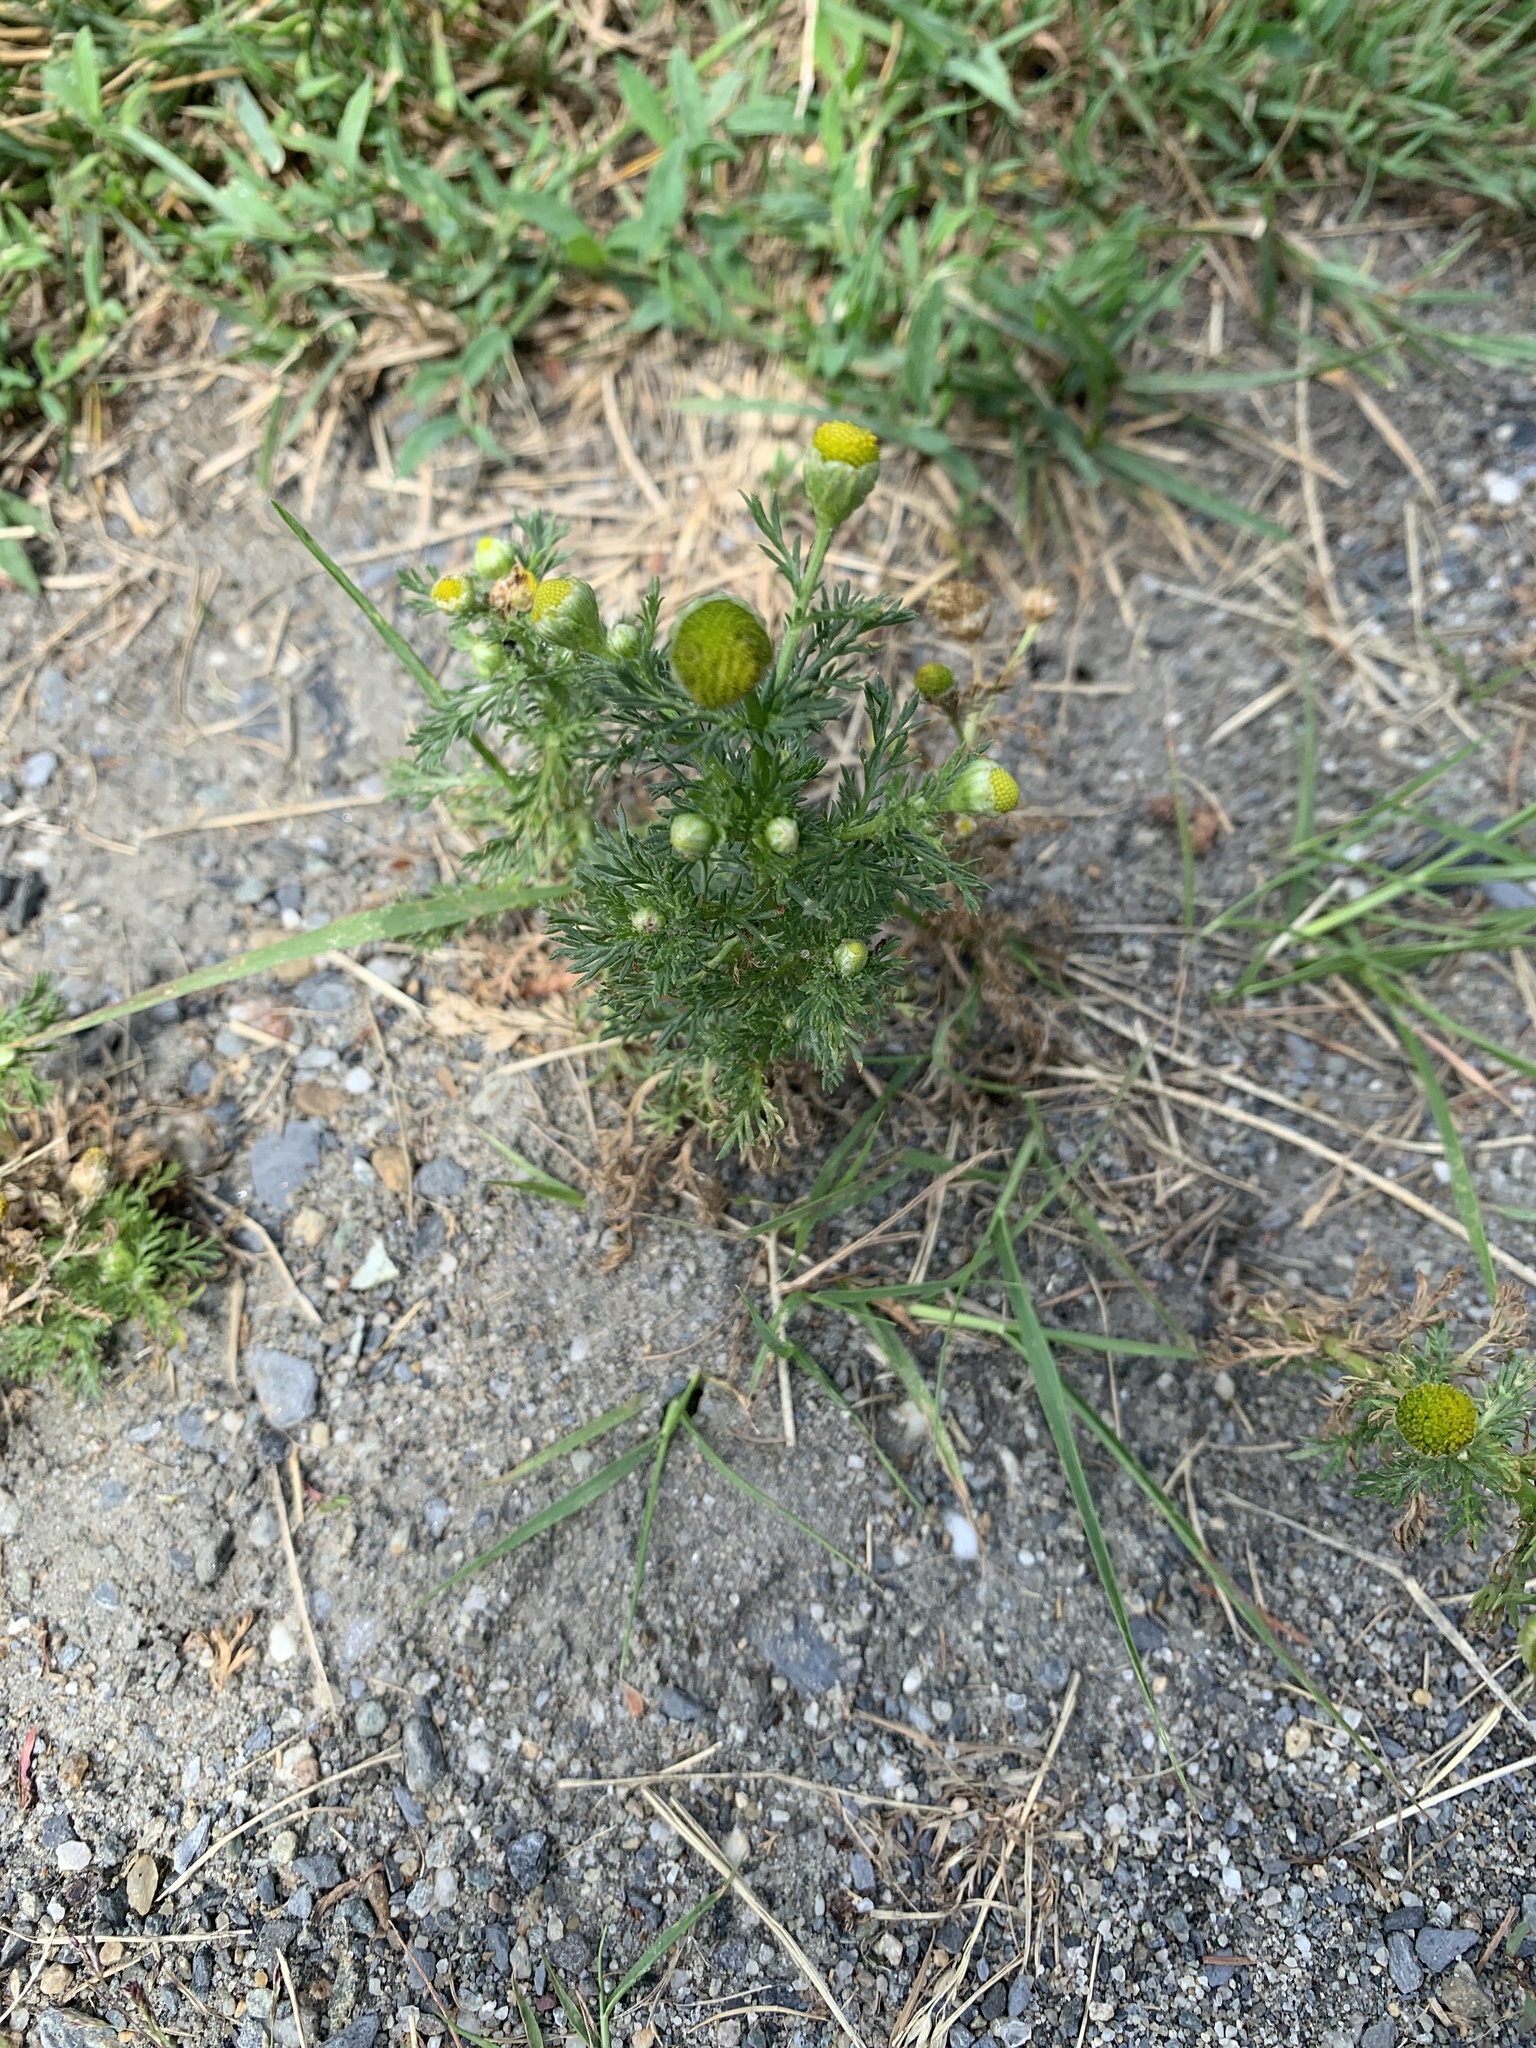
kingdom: Plantae
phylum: Tracheophyta
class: Magnoliopsida
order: Asterales
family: Asteraceae
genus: Matricaria
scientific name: Matricaria discoidea
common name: Disc mayweed
